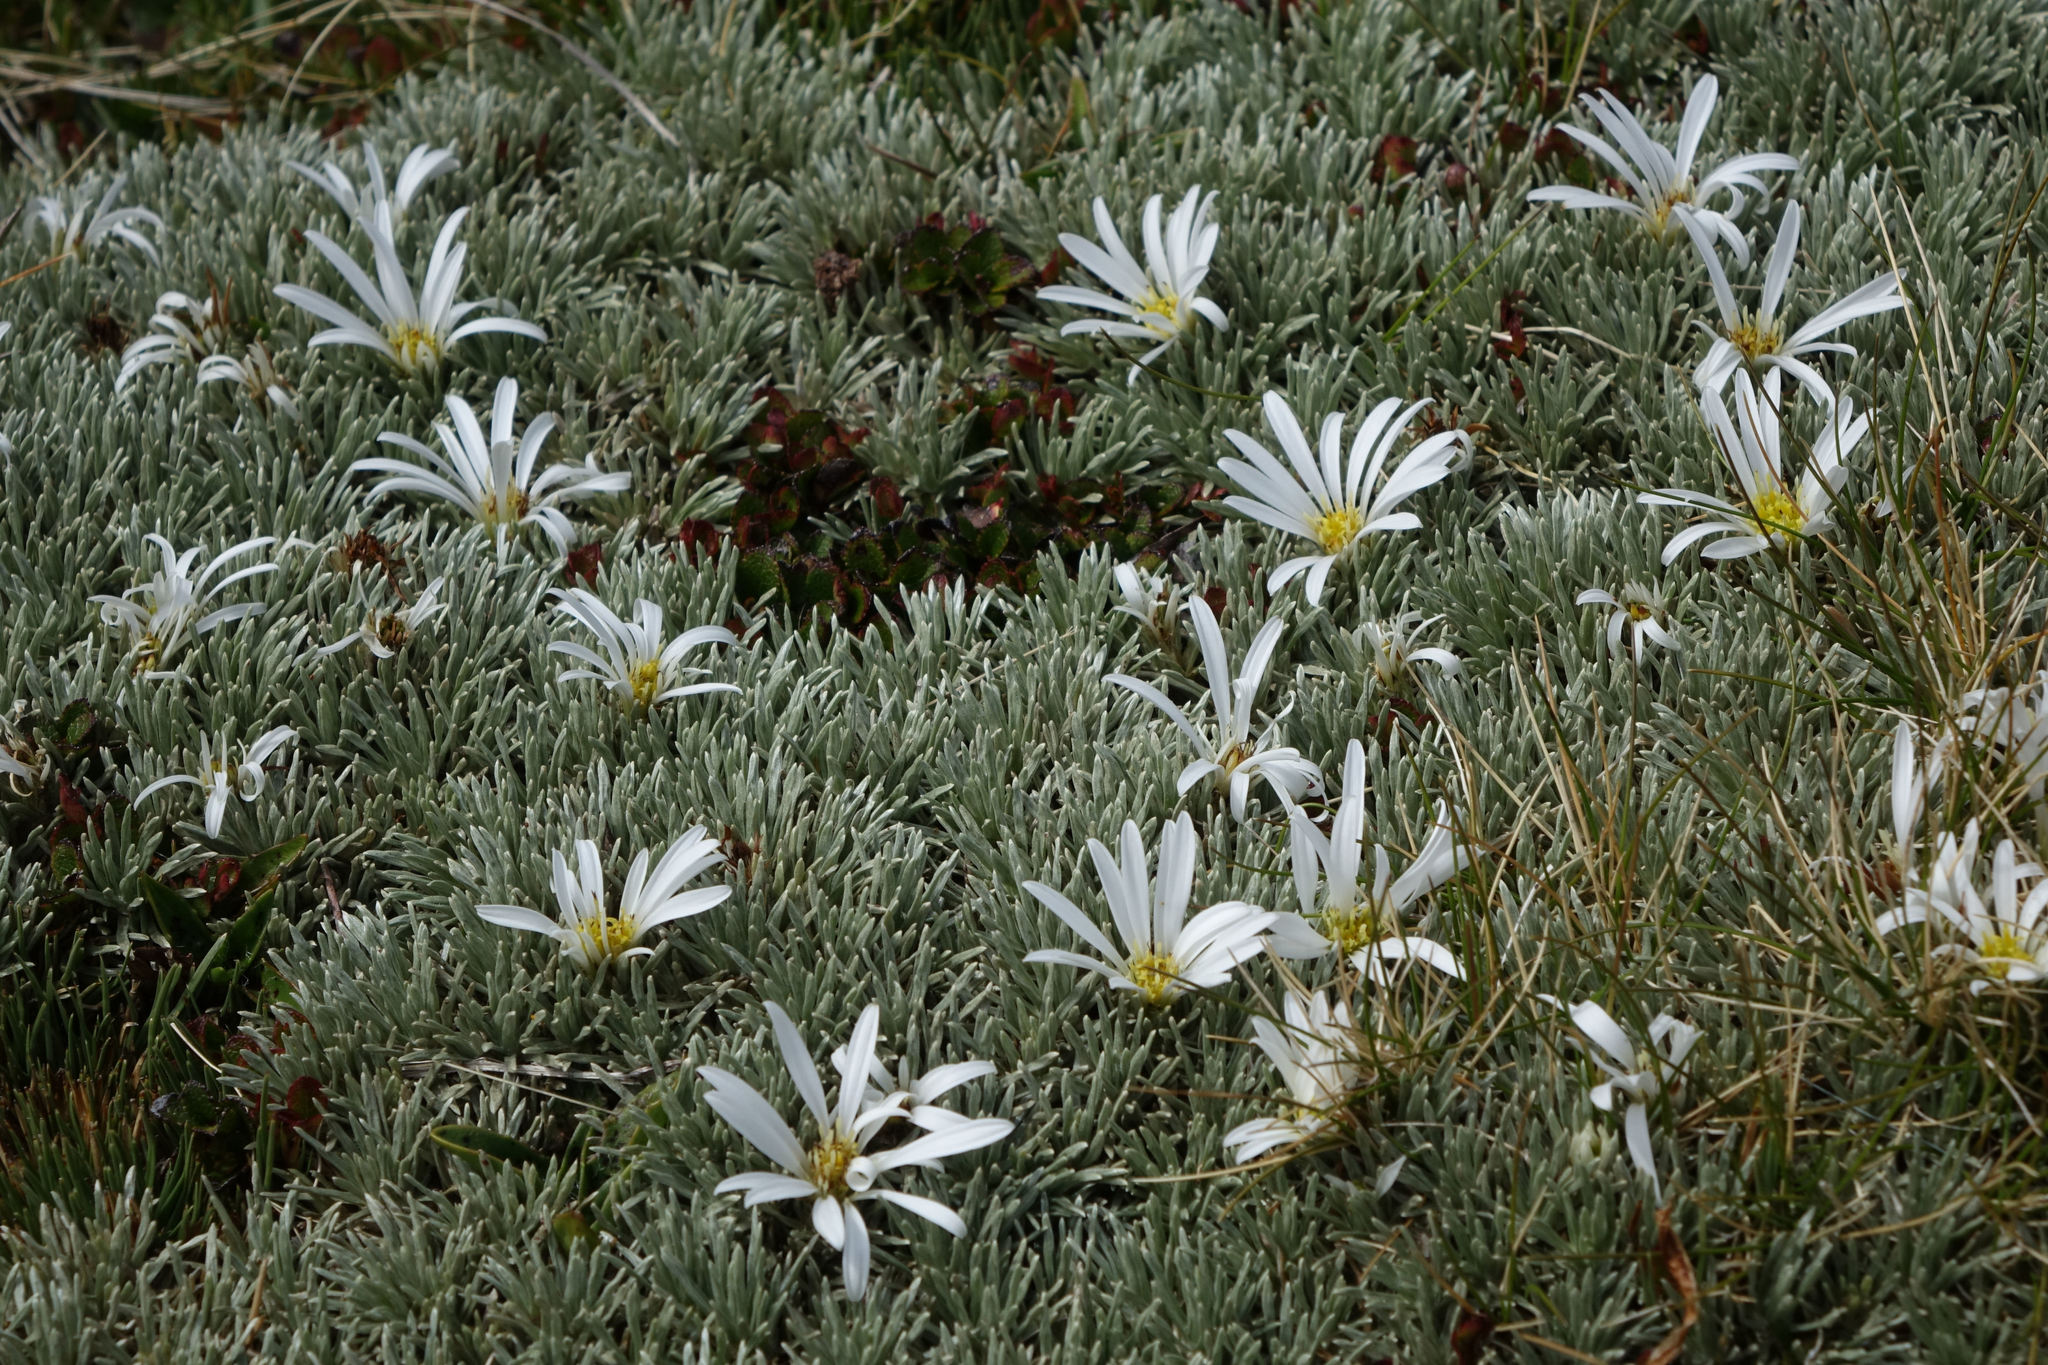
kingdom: Plantae
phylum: Tracheophyta
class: Magnoliopsida
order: Asterales
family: Asteraceae
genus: Celmisia
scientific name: Celmisia sessiliflora
